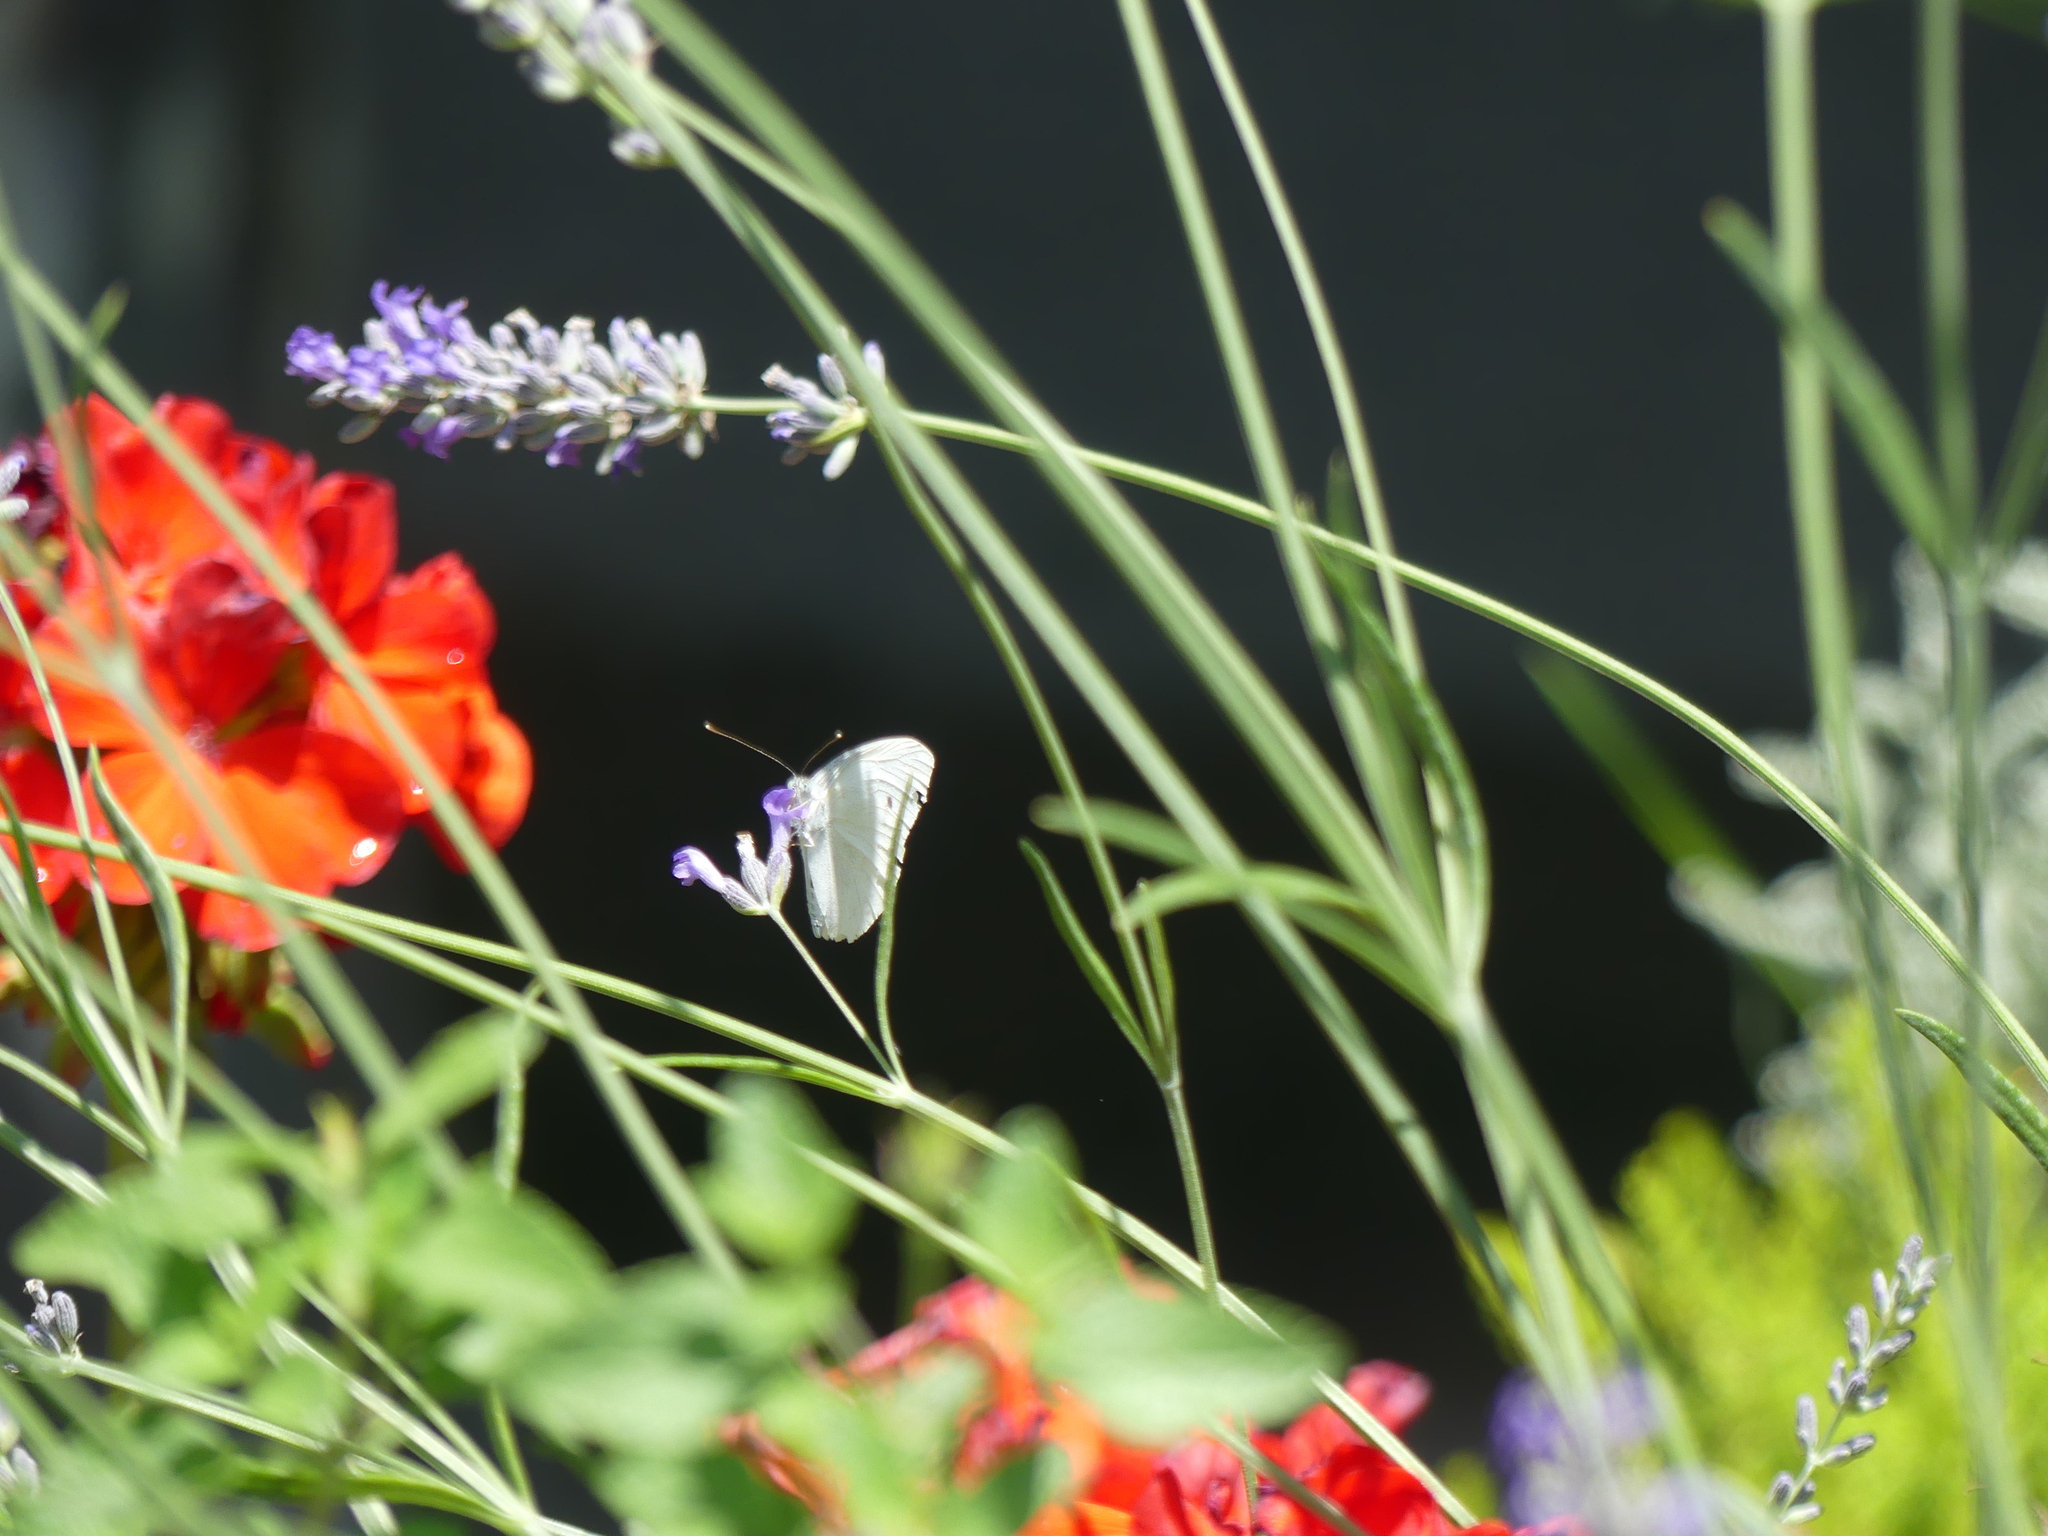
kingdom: Animalia
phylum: Arthropoda
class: Insecta
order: Lepidoptera
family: Pieridae
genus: Pieris
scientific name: Pieris rapae
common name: Small white
